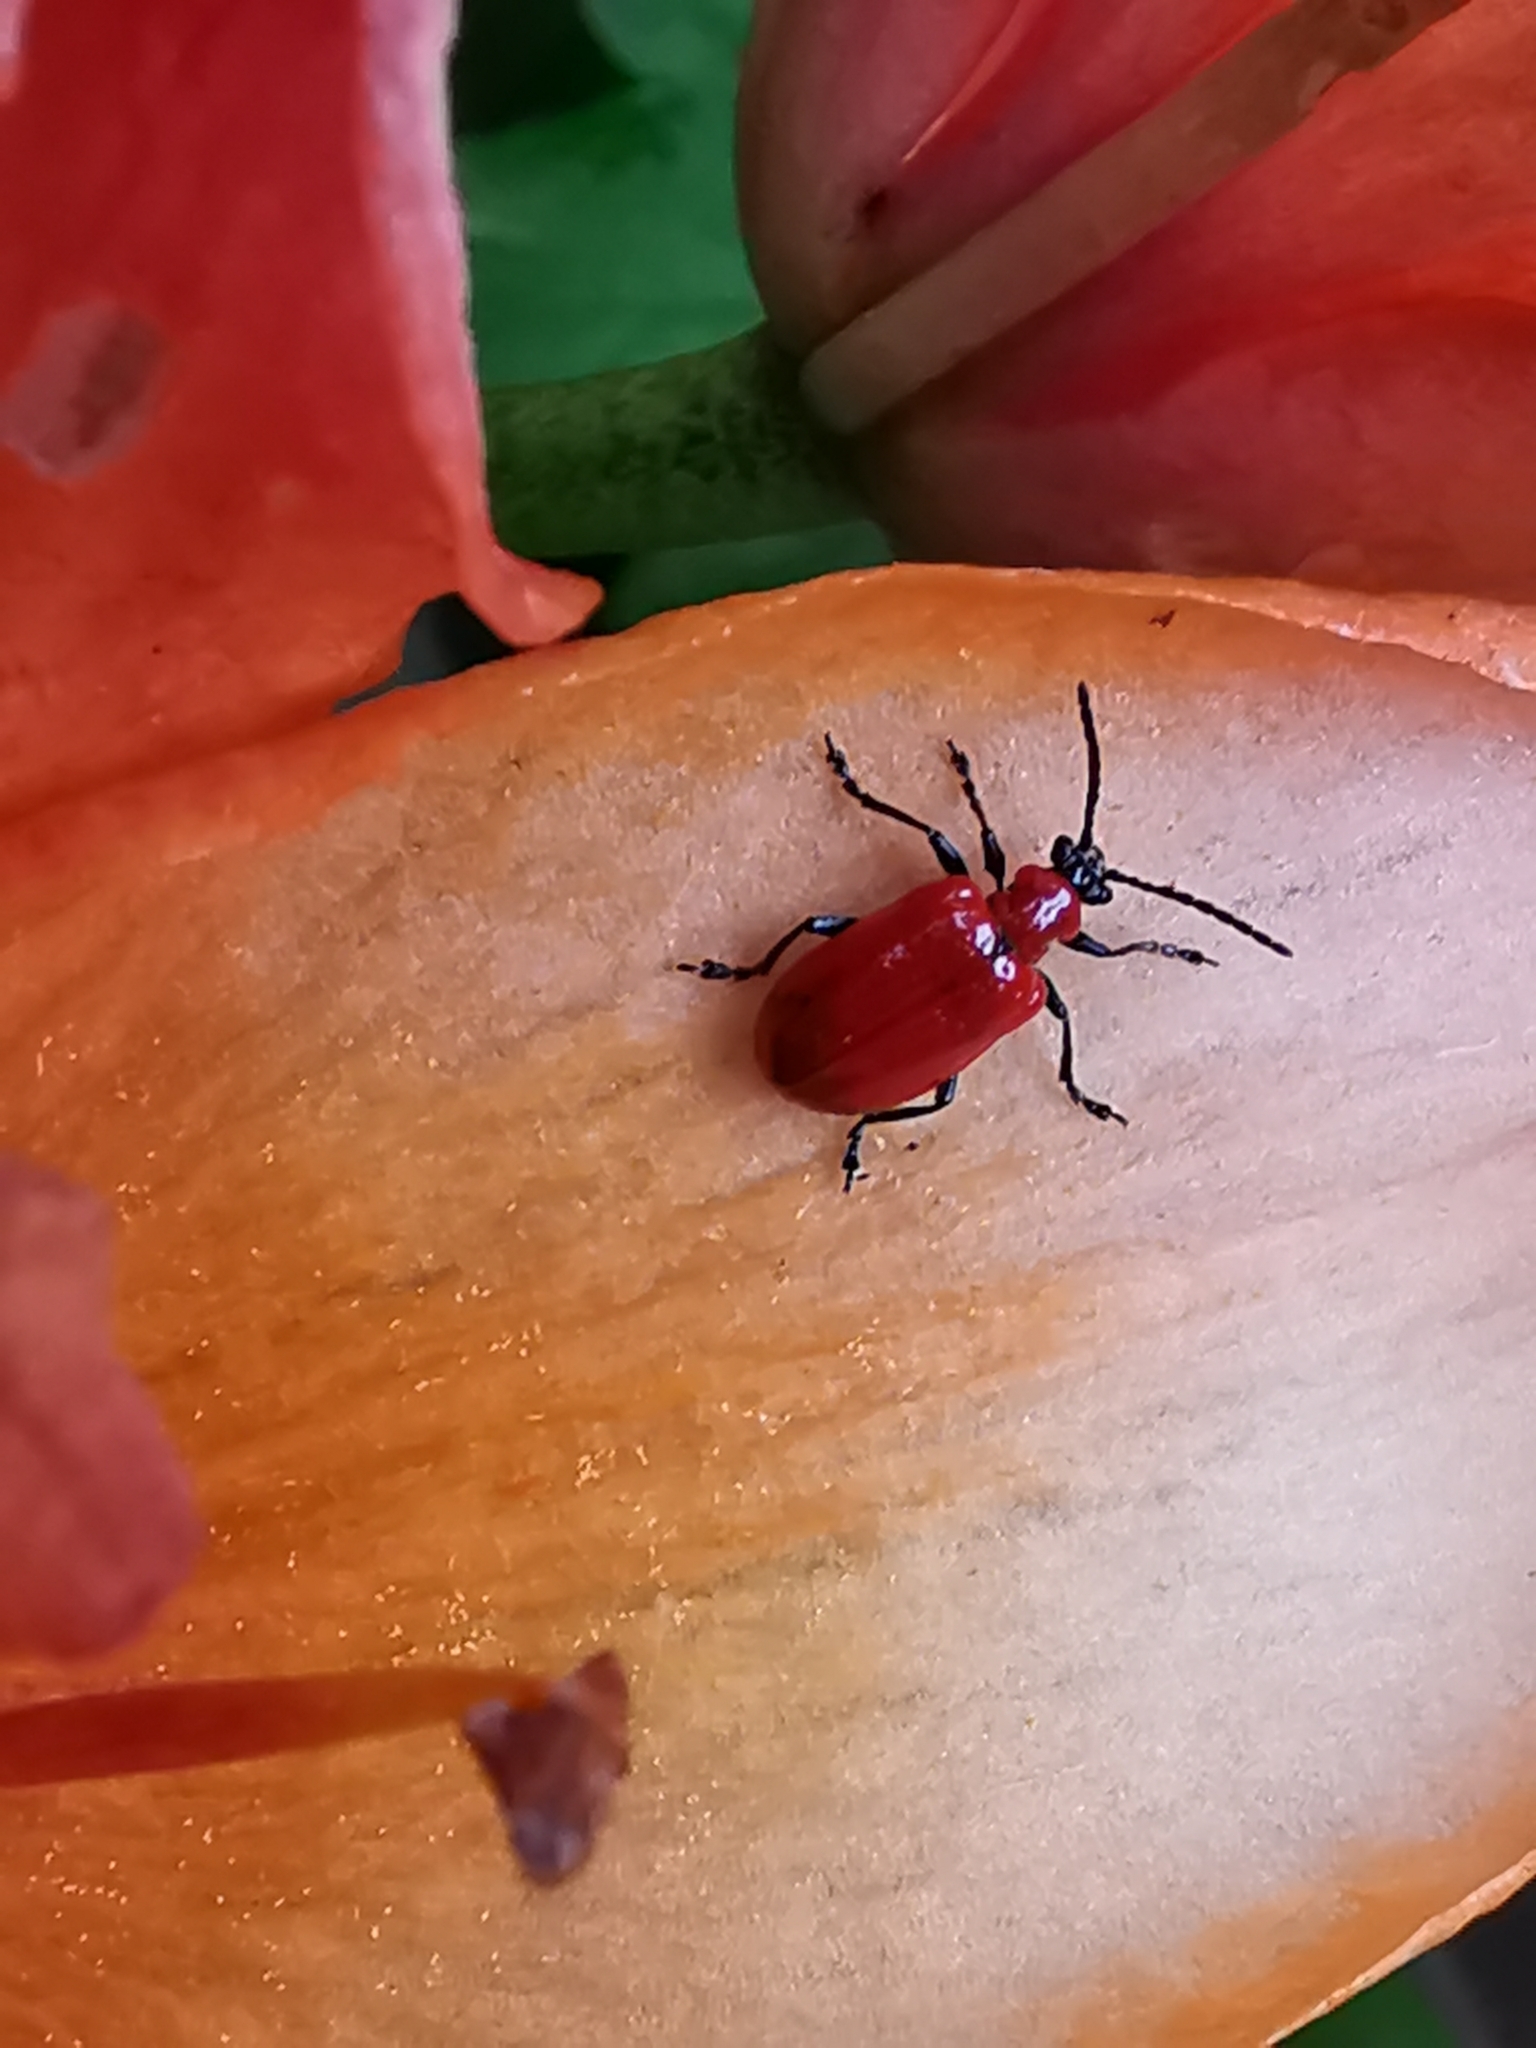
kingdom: Animalia
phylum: Arthropoda
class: Insecta
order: Coleoptera
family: Chrysomelidae
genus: Lilioceris
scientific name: Lilioceris lilii
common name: Lily beetle
